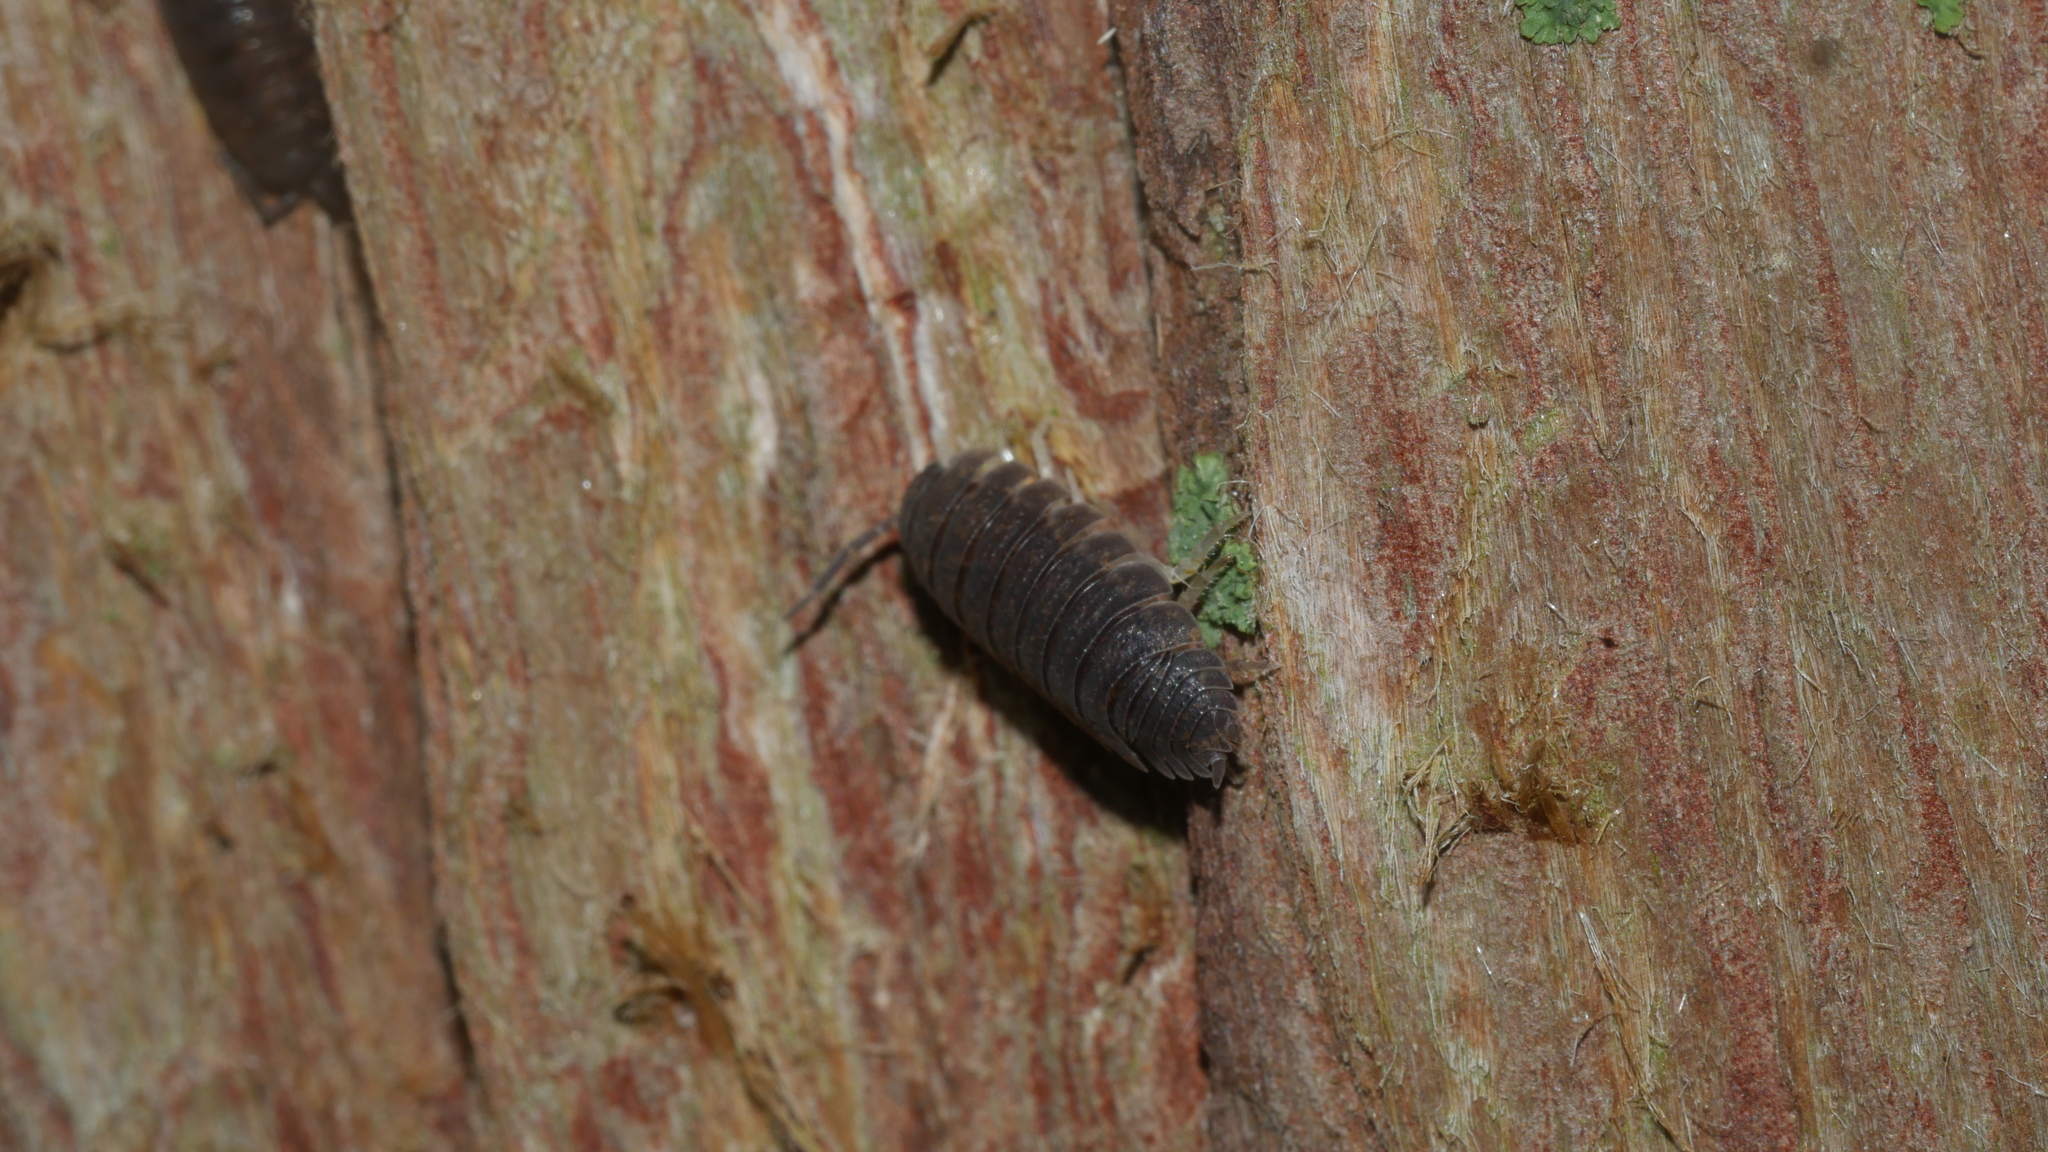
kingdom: Animalia
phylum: Arthropoda
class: Malacostraca
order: Isopoda
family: Porcellionidae
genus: Porcellio
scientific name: Porcellio scaber
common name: Common rough woodlouse
